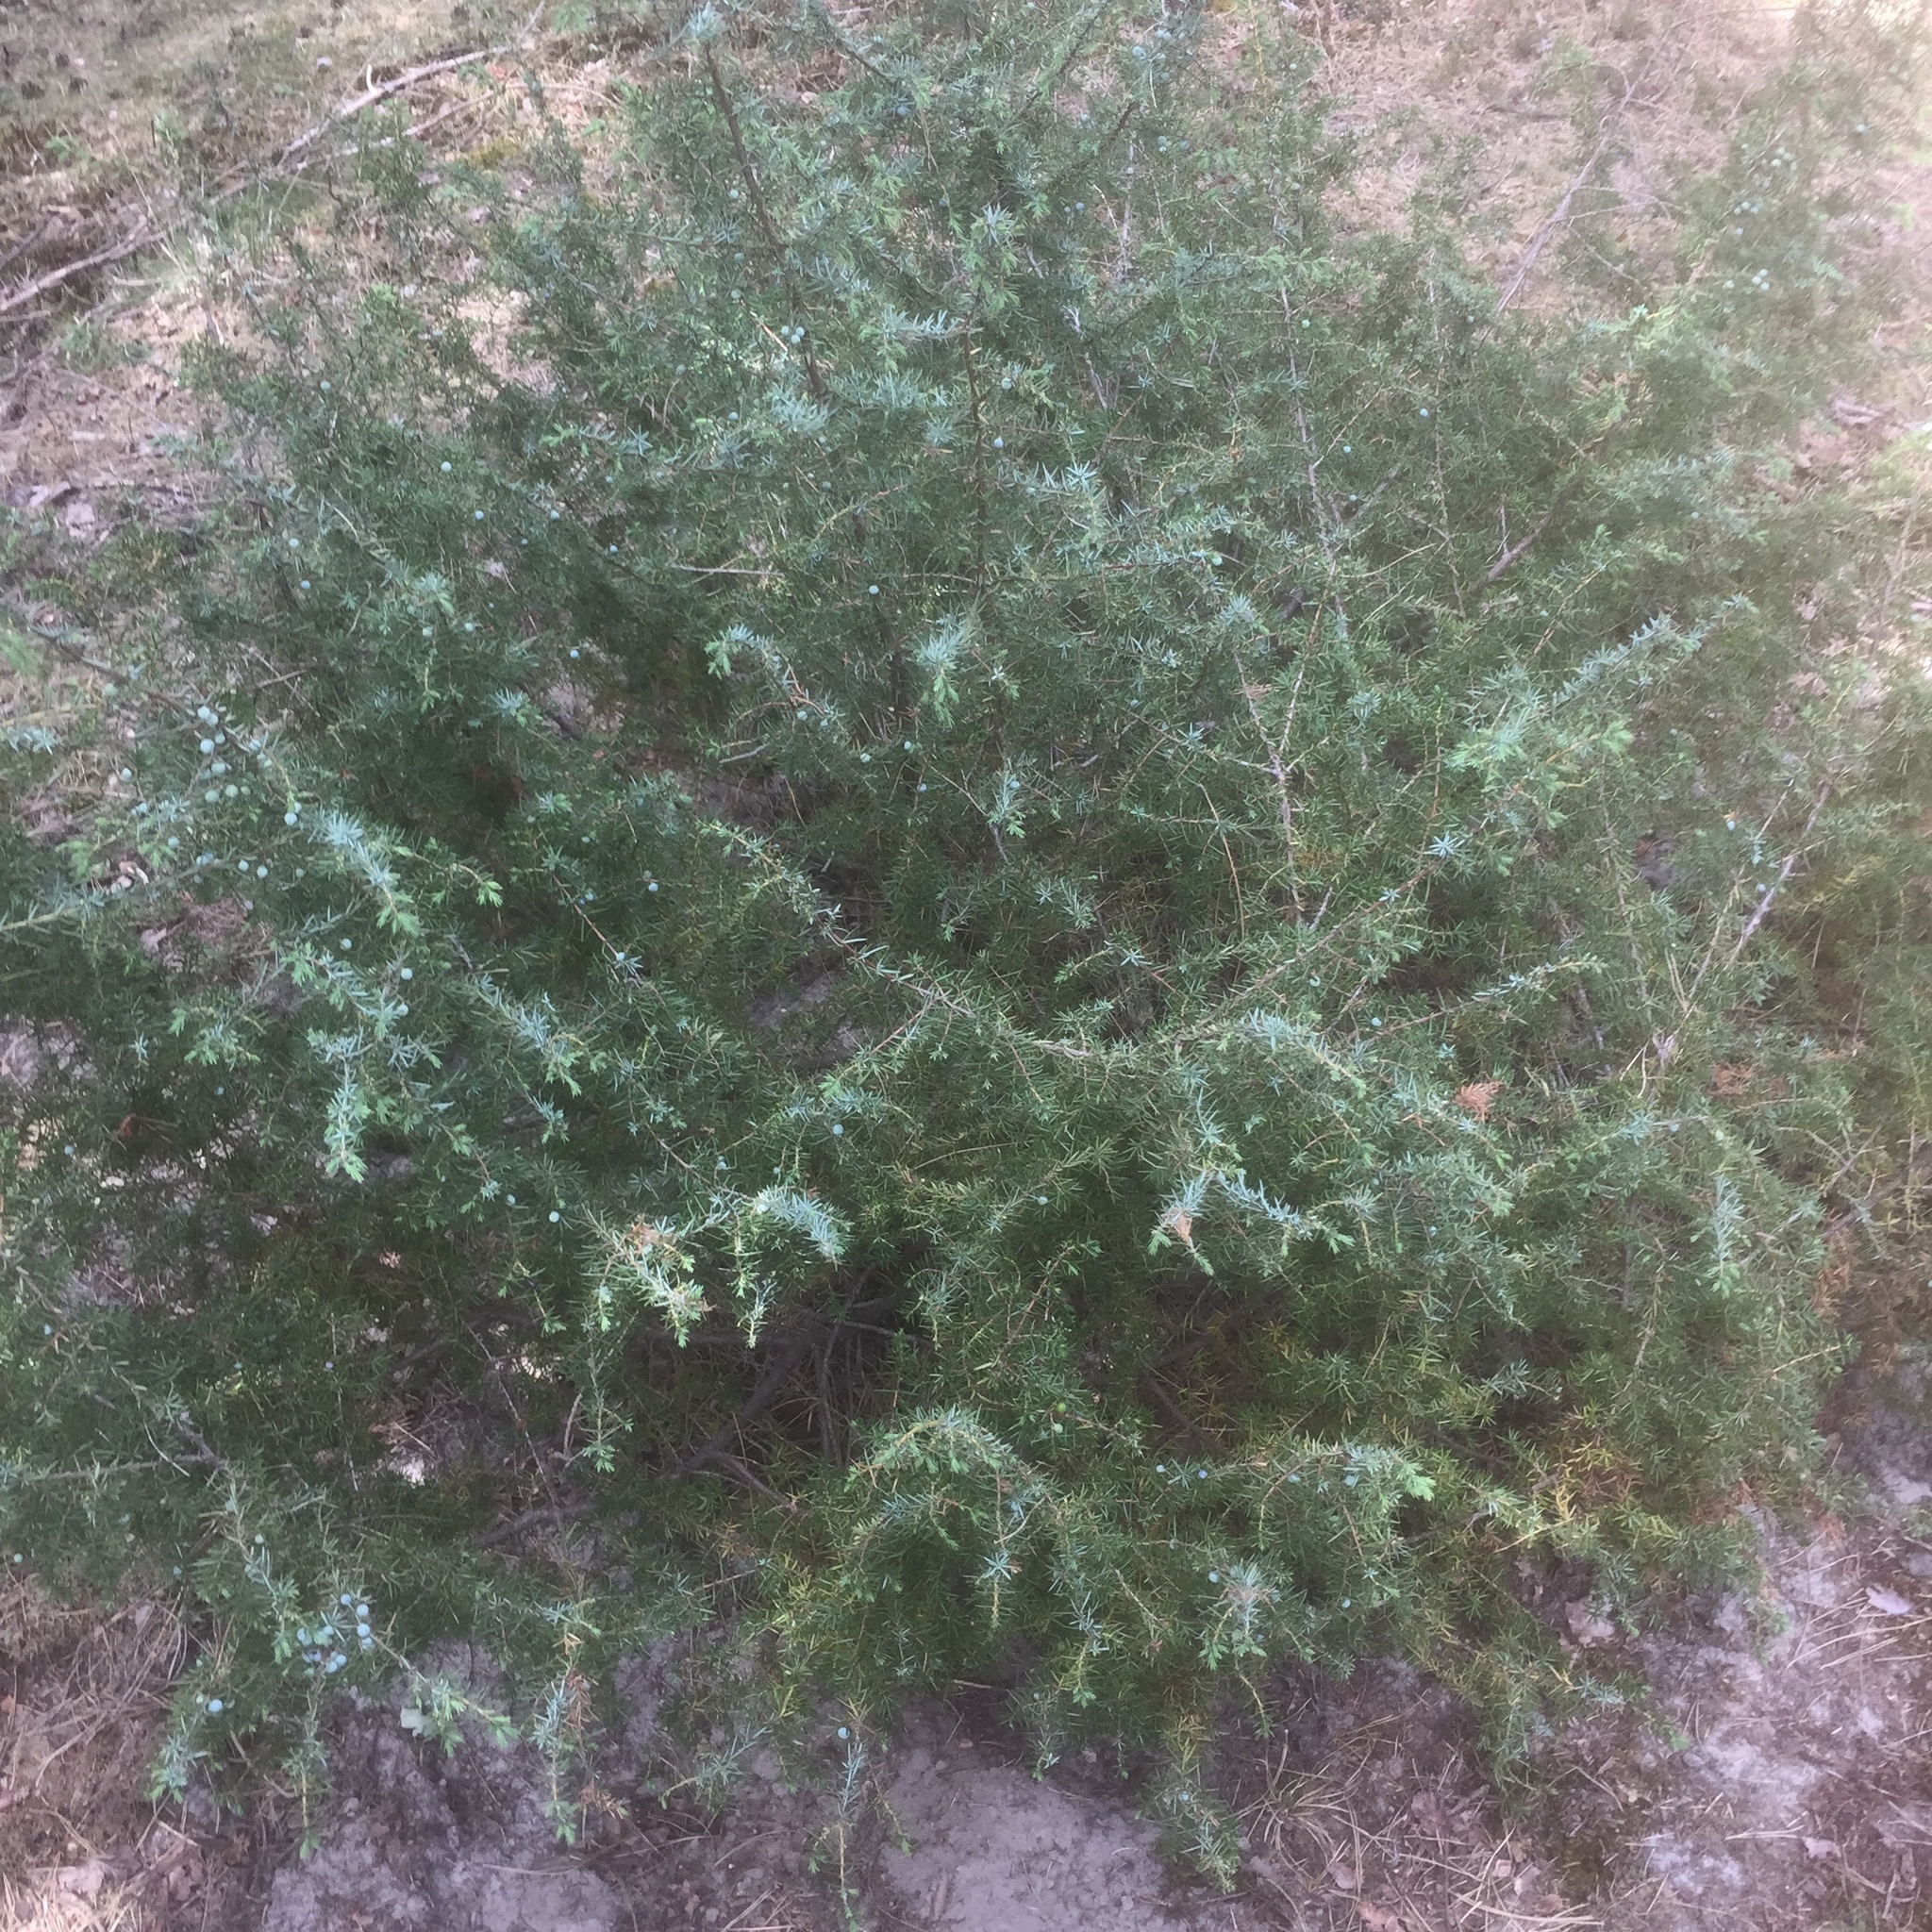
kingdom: Plantae
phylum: Tracheophyta
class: Pinopsida
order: Pinales
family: Cupressaceae
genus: Juniperus
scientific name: Juniperus communis
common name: Common juniper
